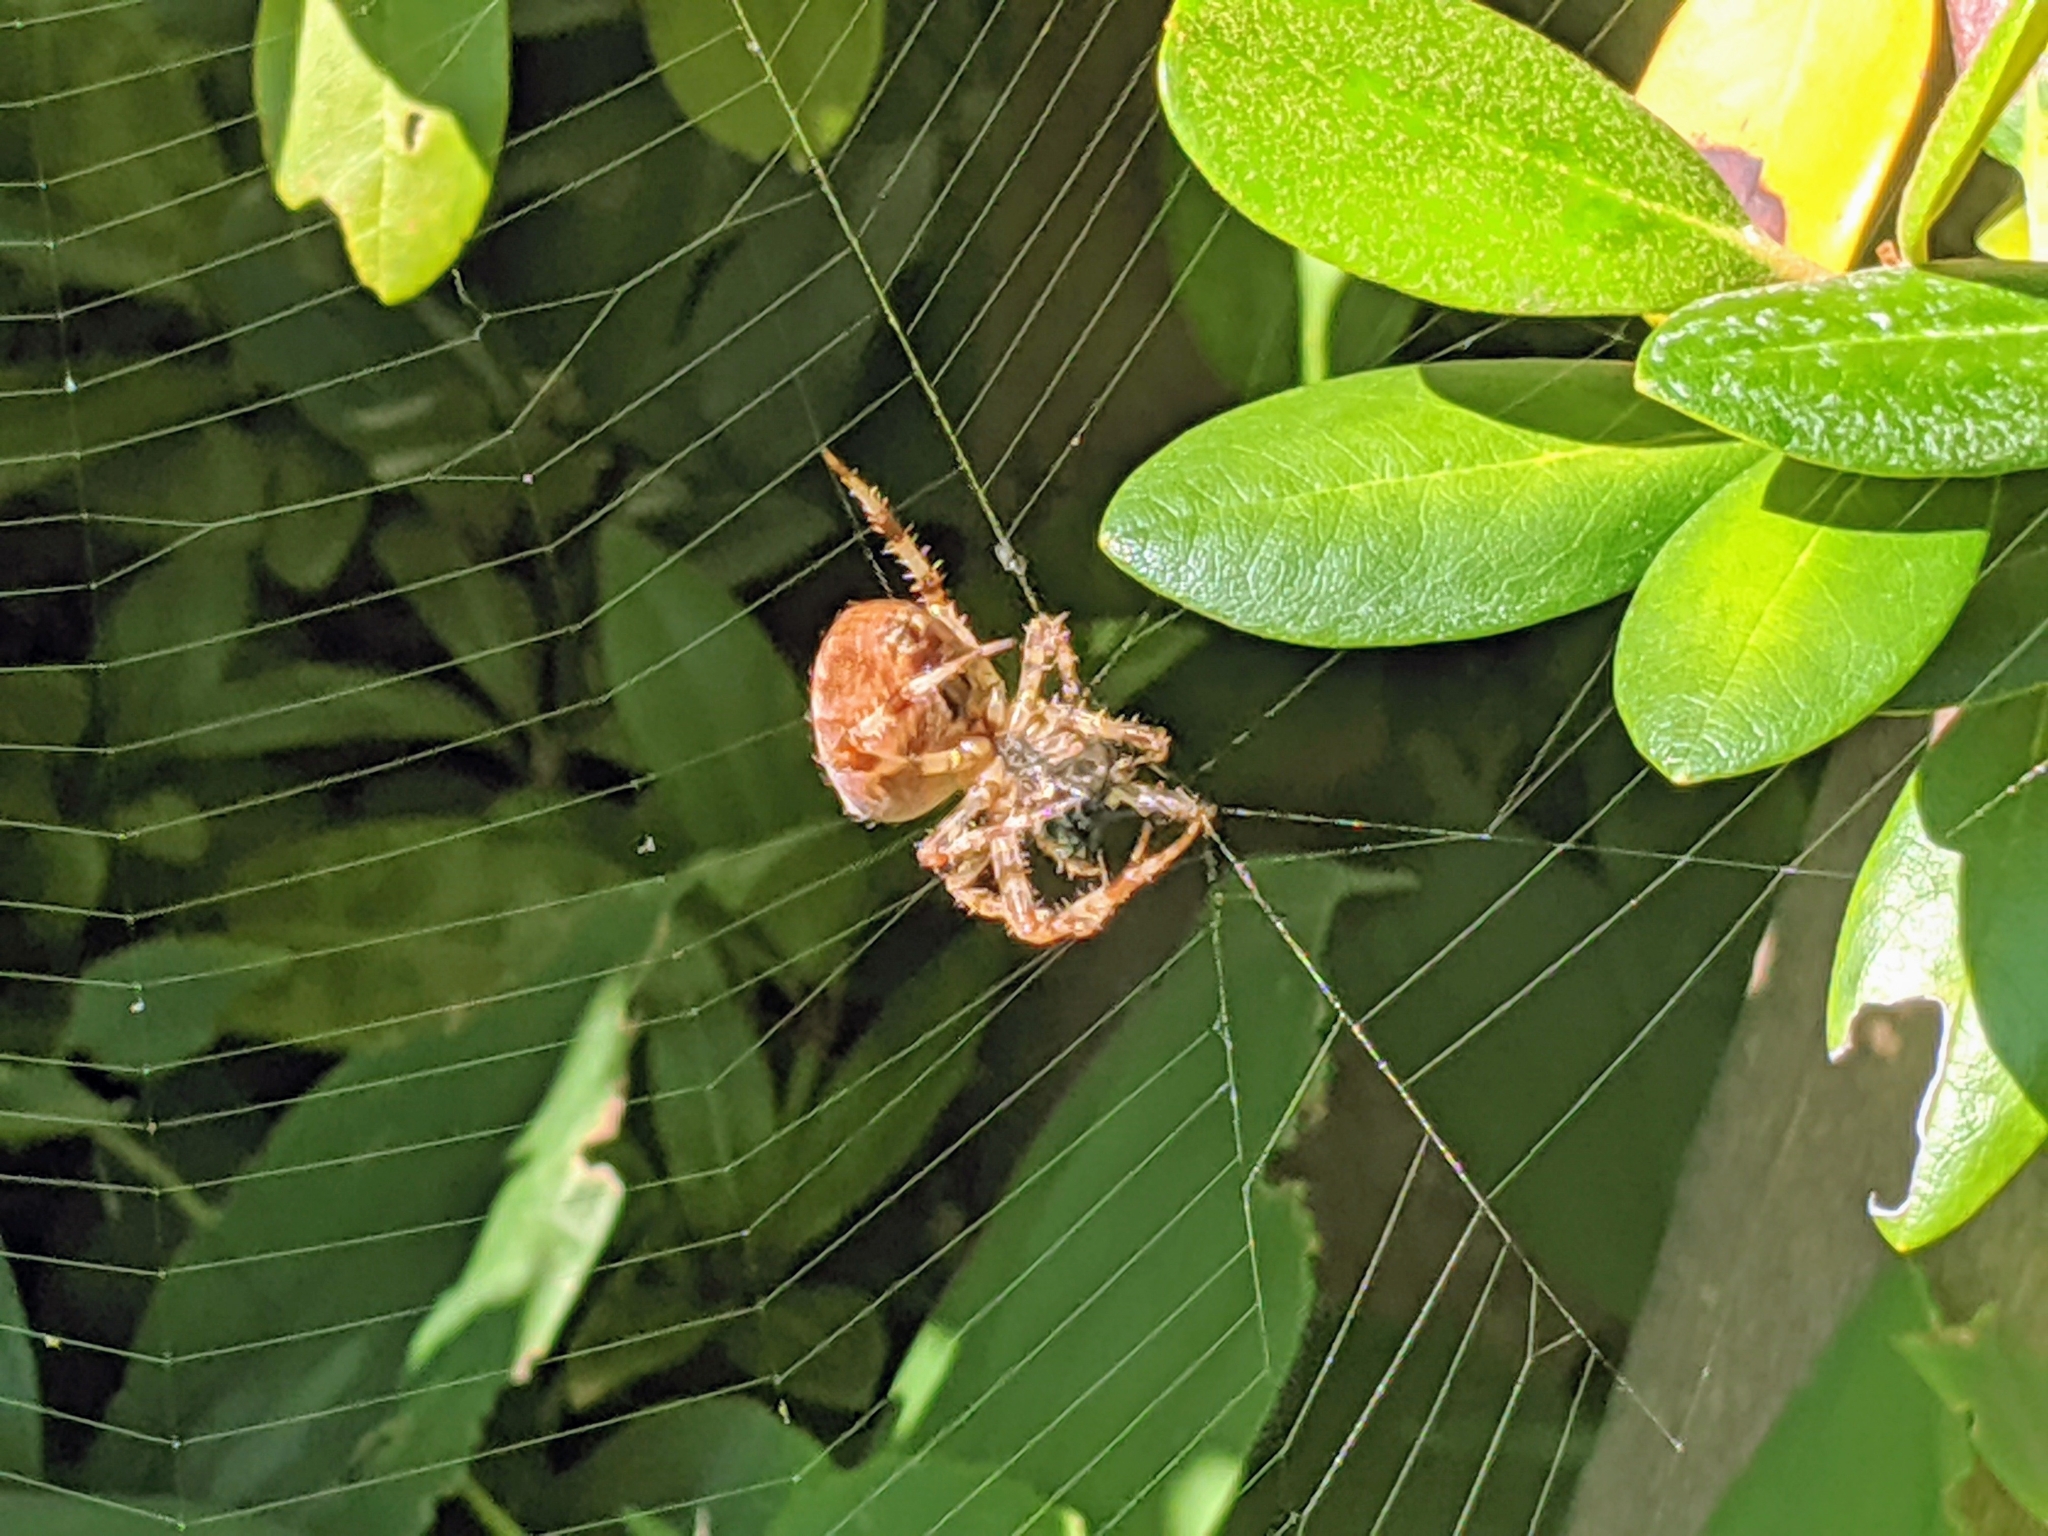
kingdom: Animalia
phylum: Arthropoda
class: Arachnida
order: Araneae
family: Araneidae
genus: Araneus
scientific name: Araneus diadematus
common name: Cross orbweaver
